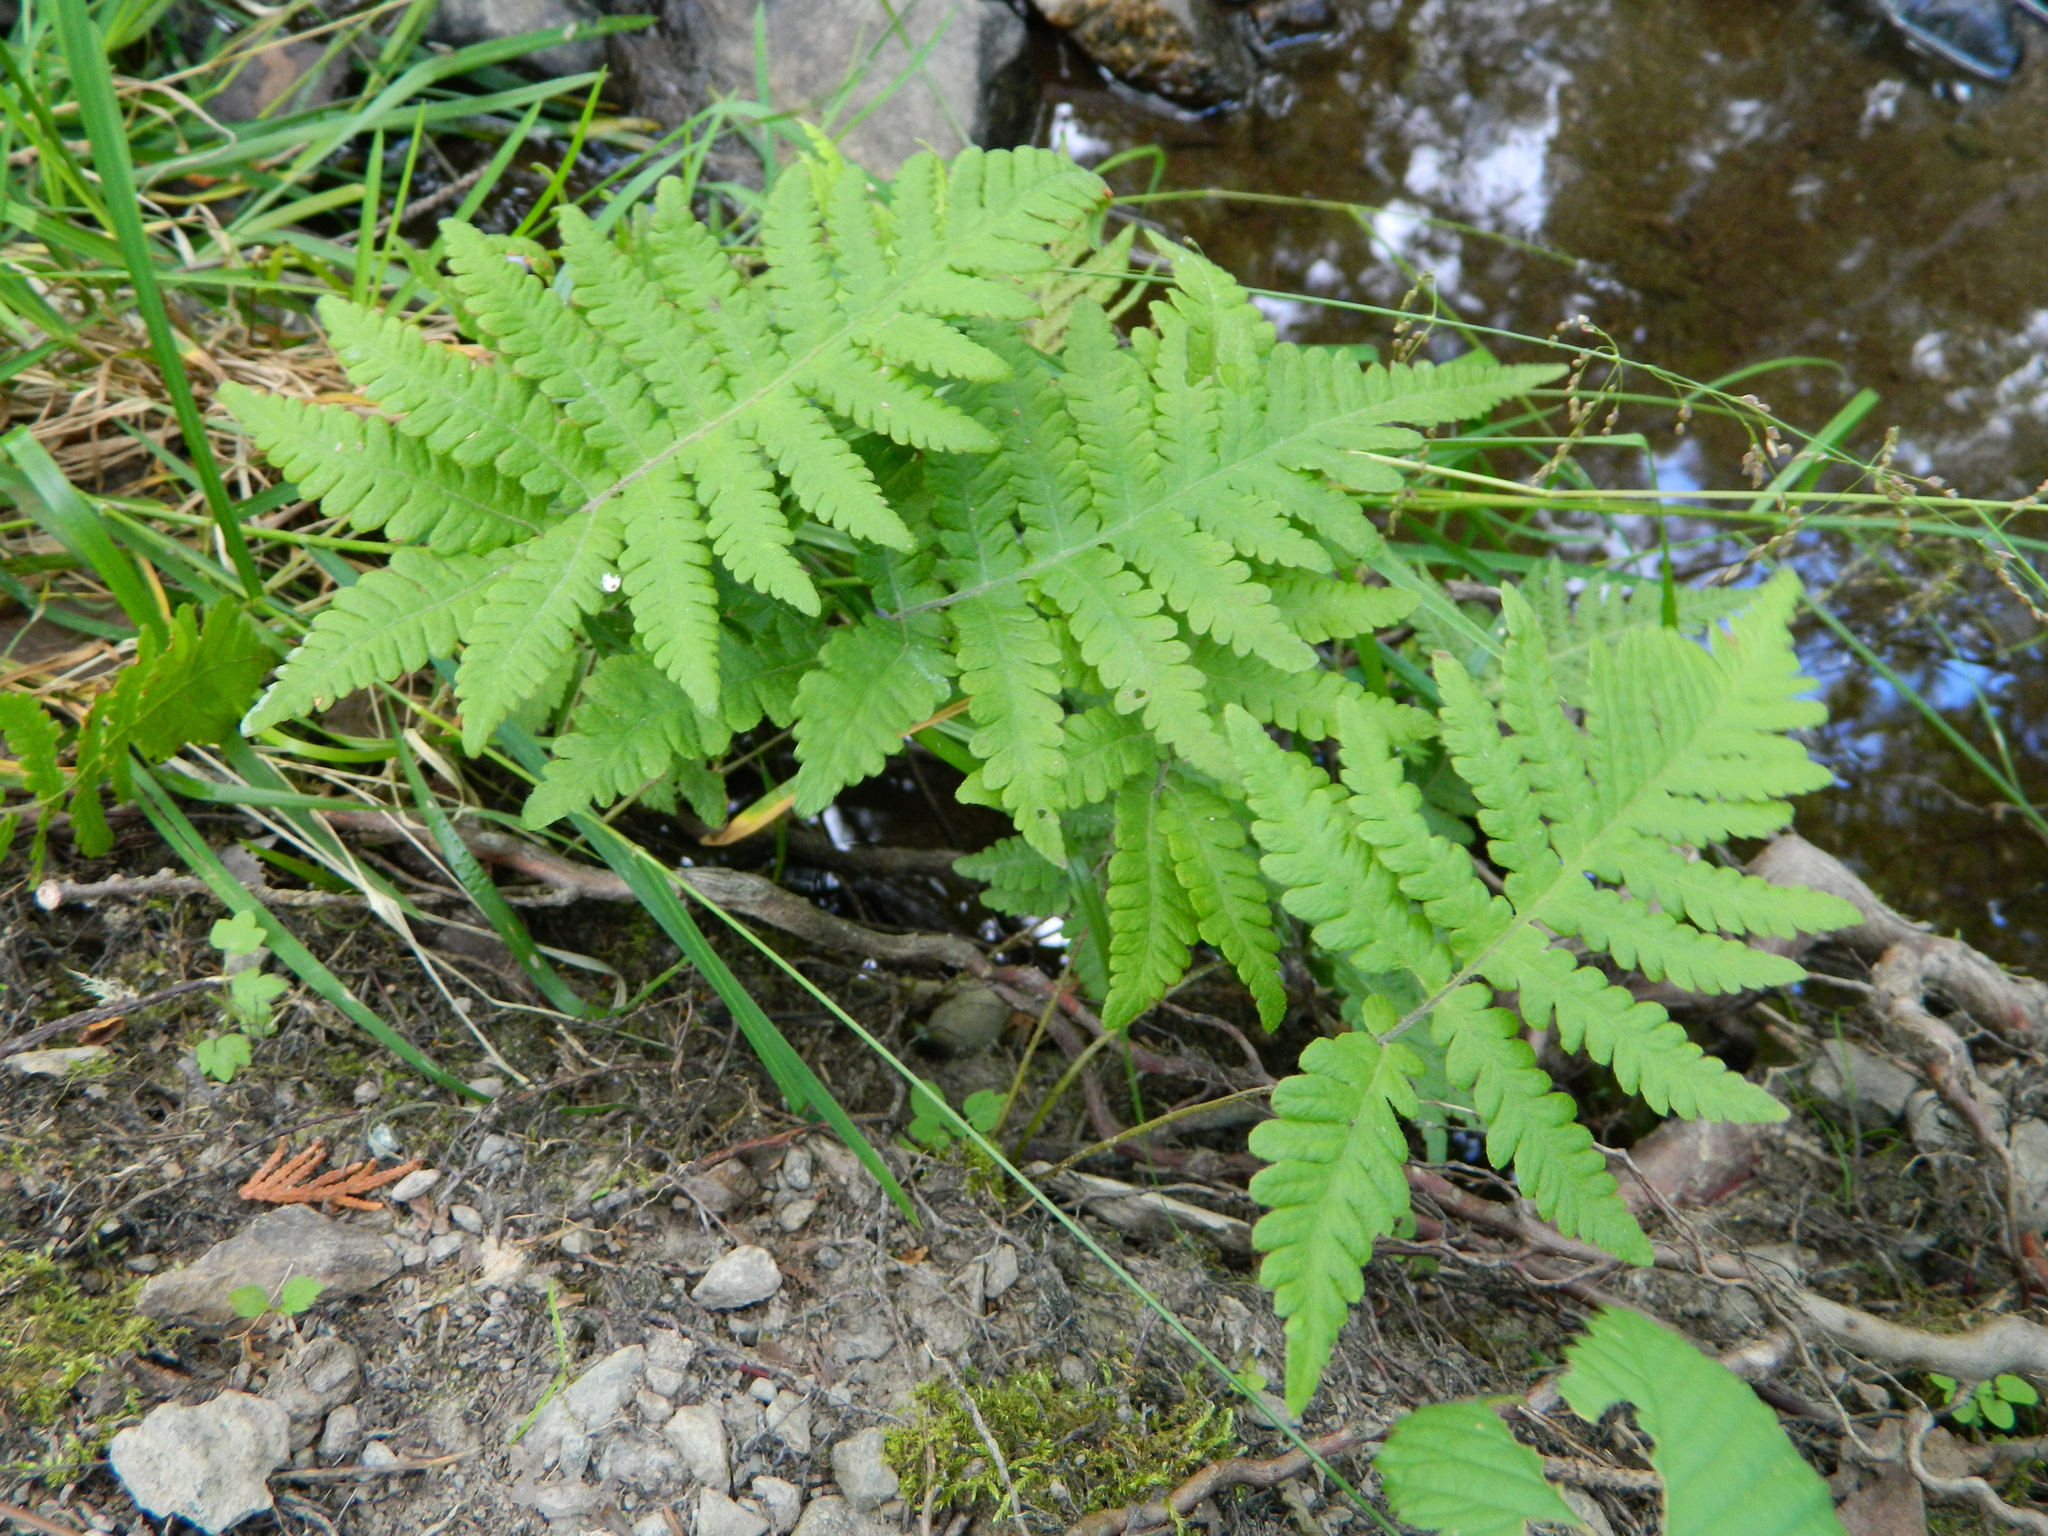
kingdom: Plantae
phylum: Tracheophyta
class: Polypodiopsida
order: Polypodiales
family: Thelypteridaceae
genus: Phegopteris
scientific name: Phegopteris connectilis
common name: Beech fern
